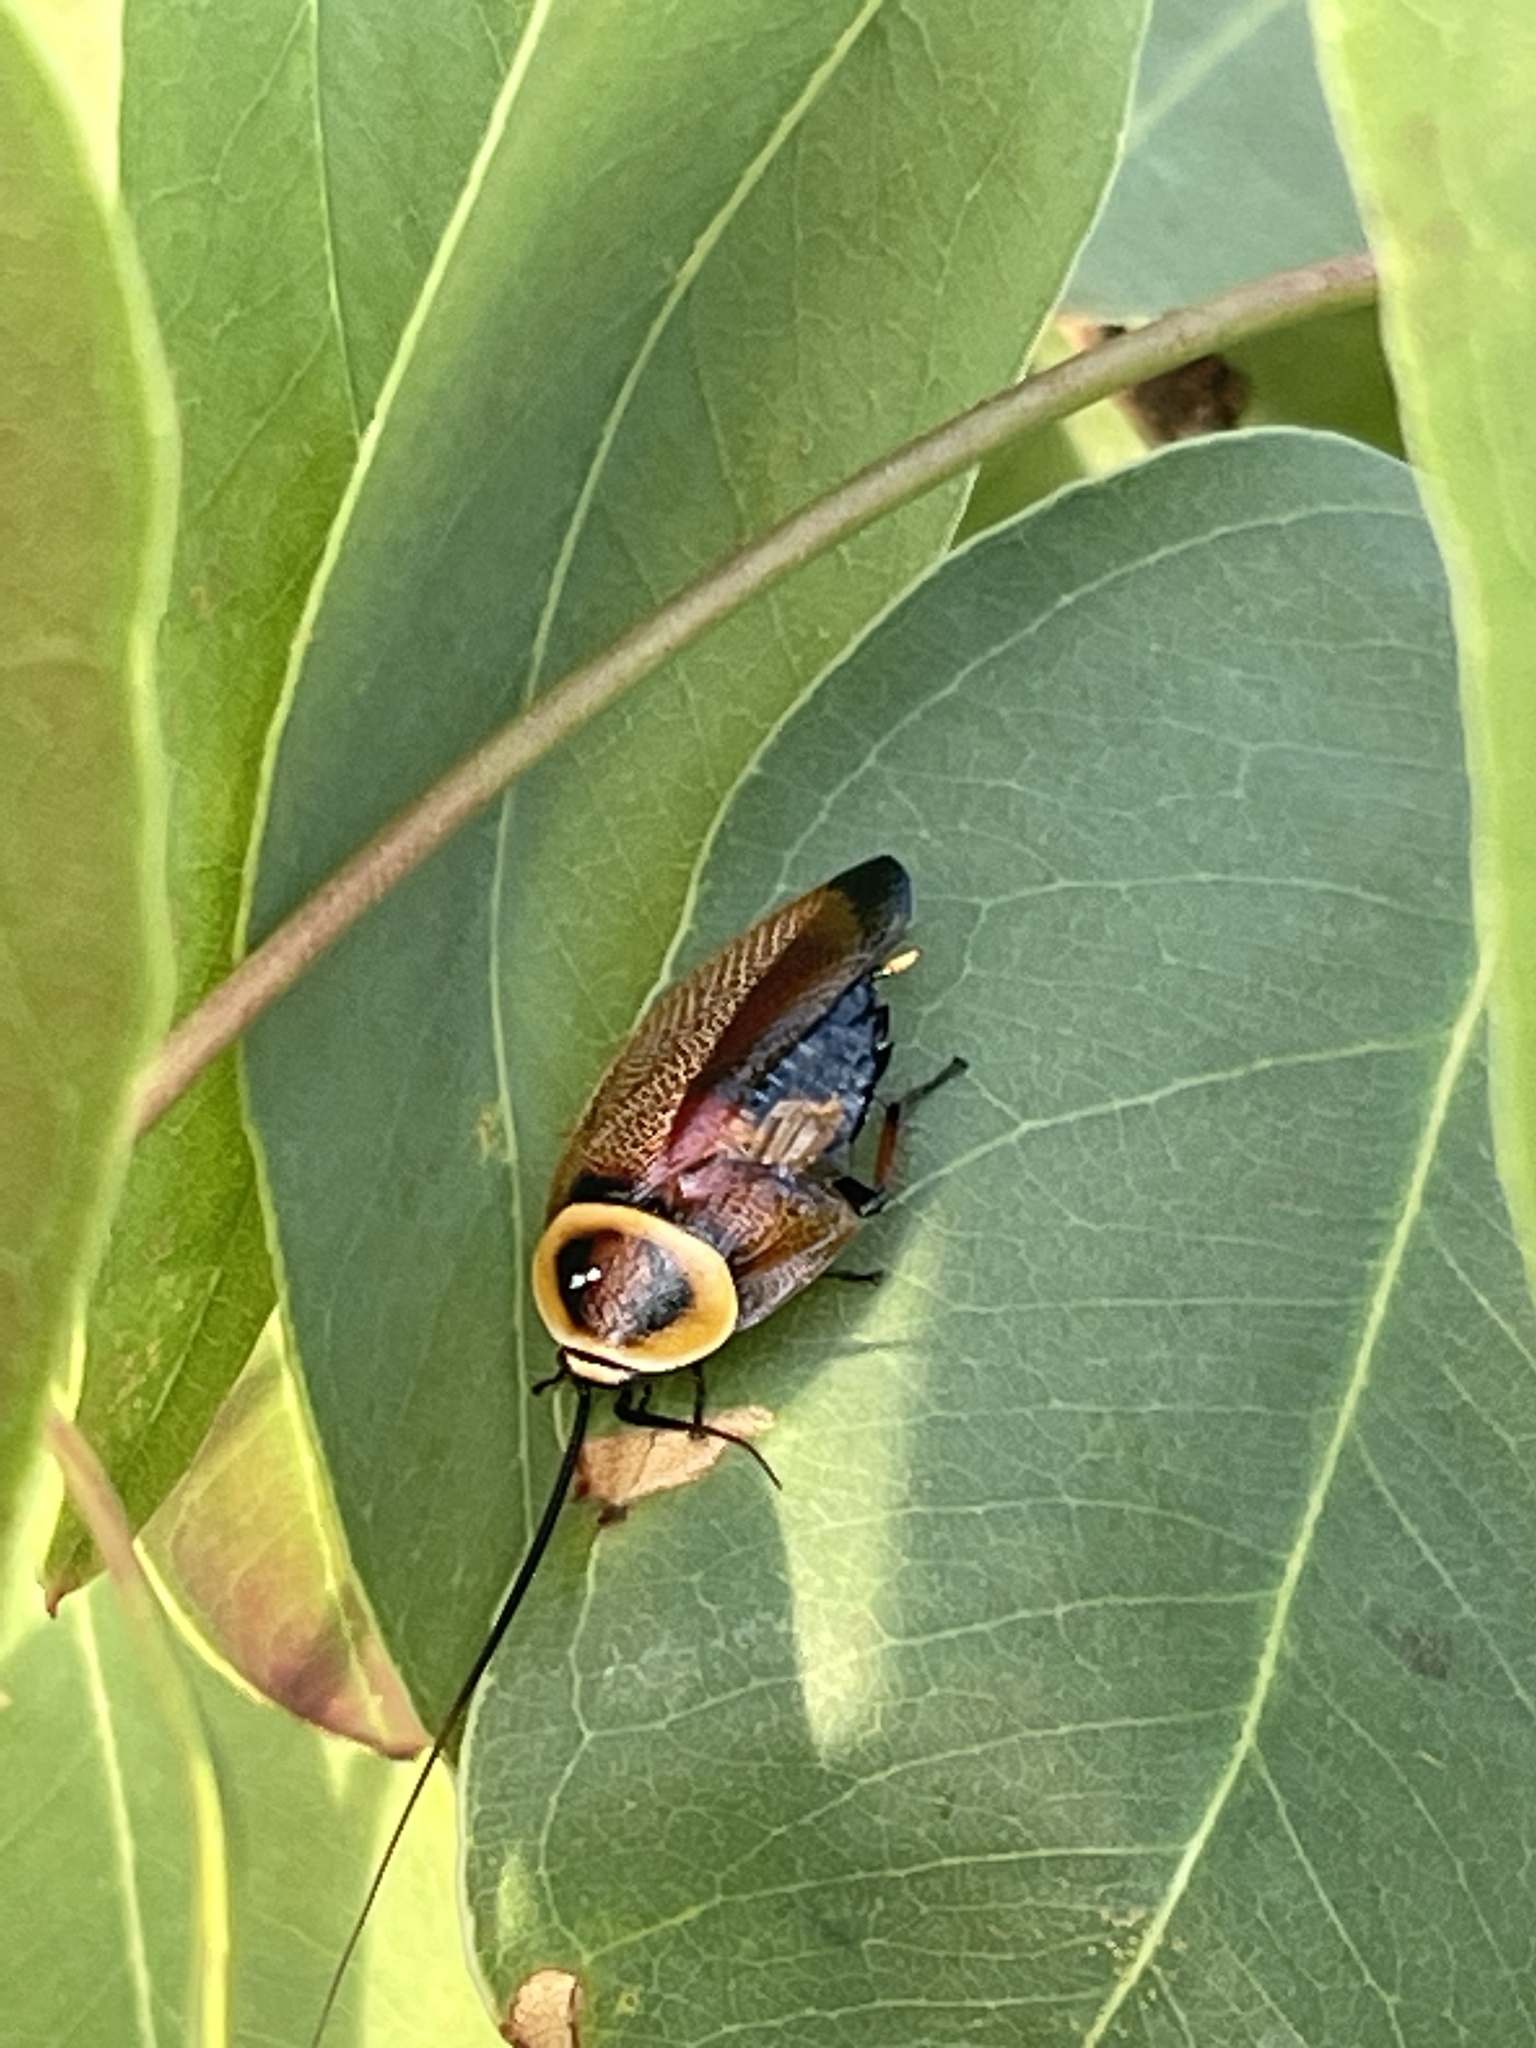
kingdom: Animalia
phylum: Arthropoda
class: Insecta
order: Blattodea
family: Ectobiidae
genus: Ellipsidion
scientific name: Ellipsidion australe
